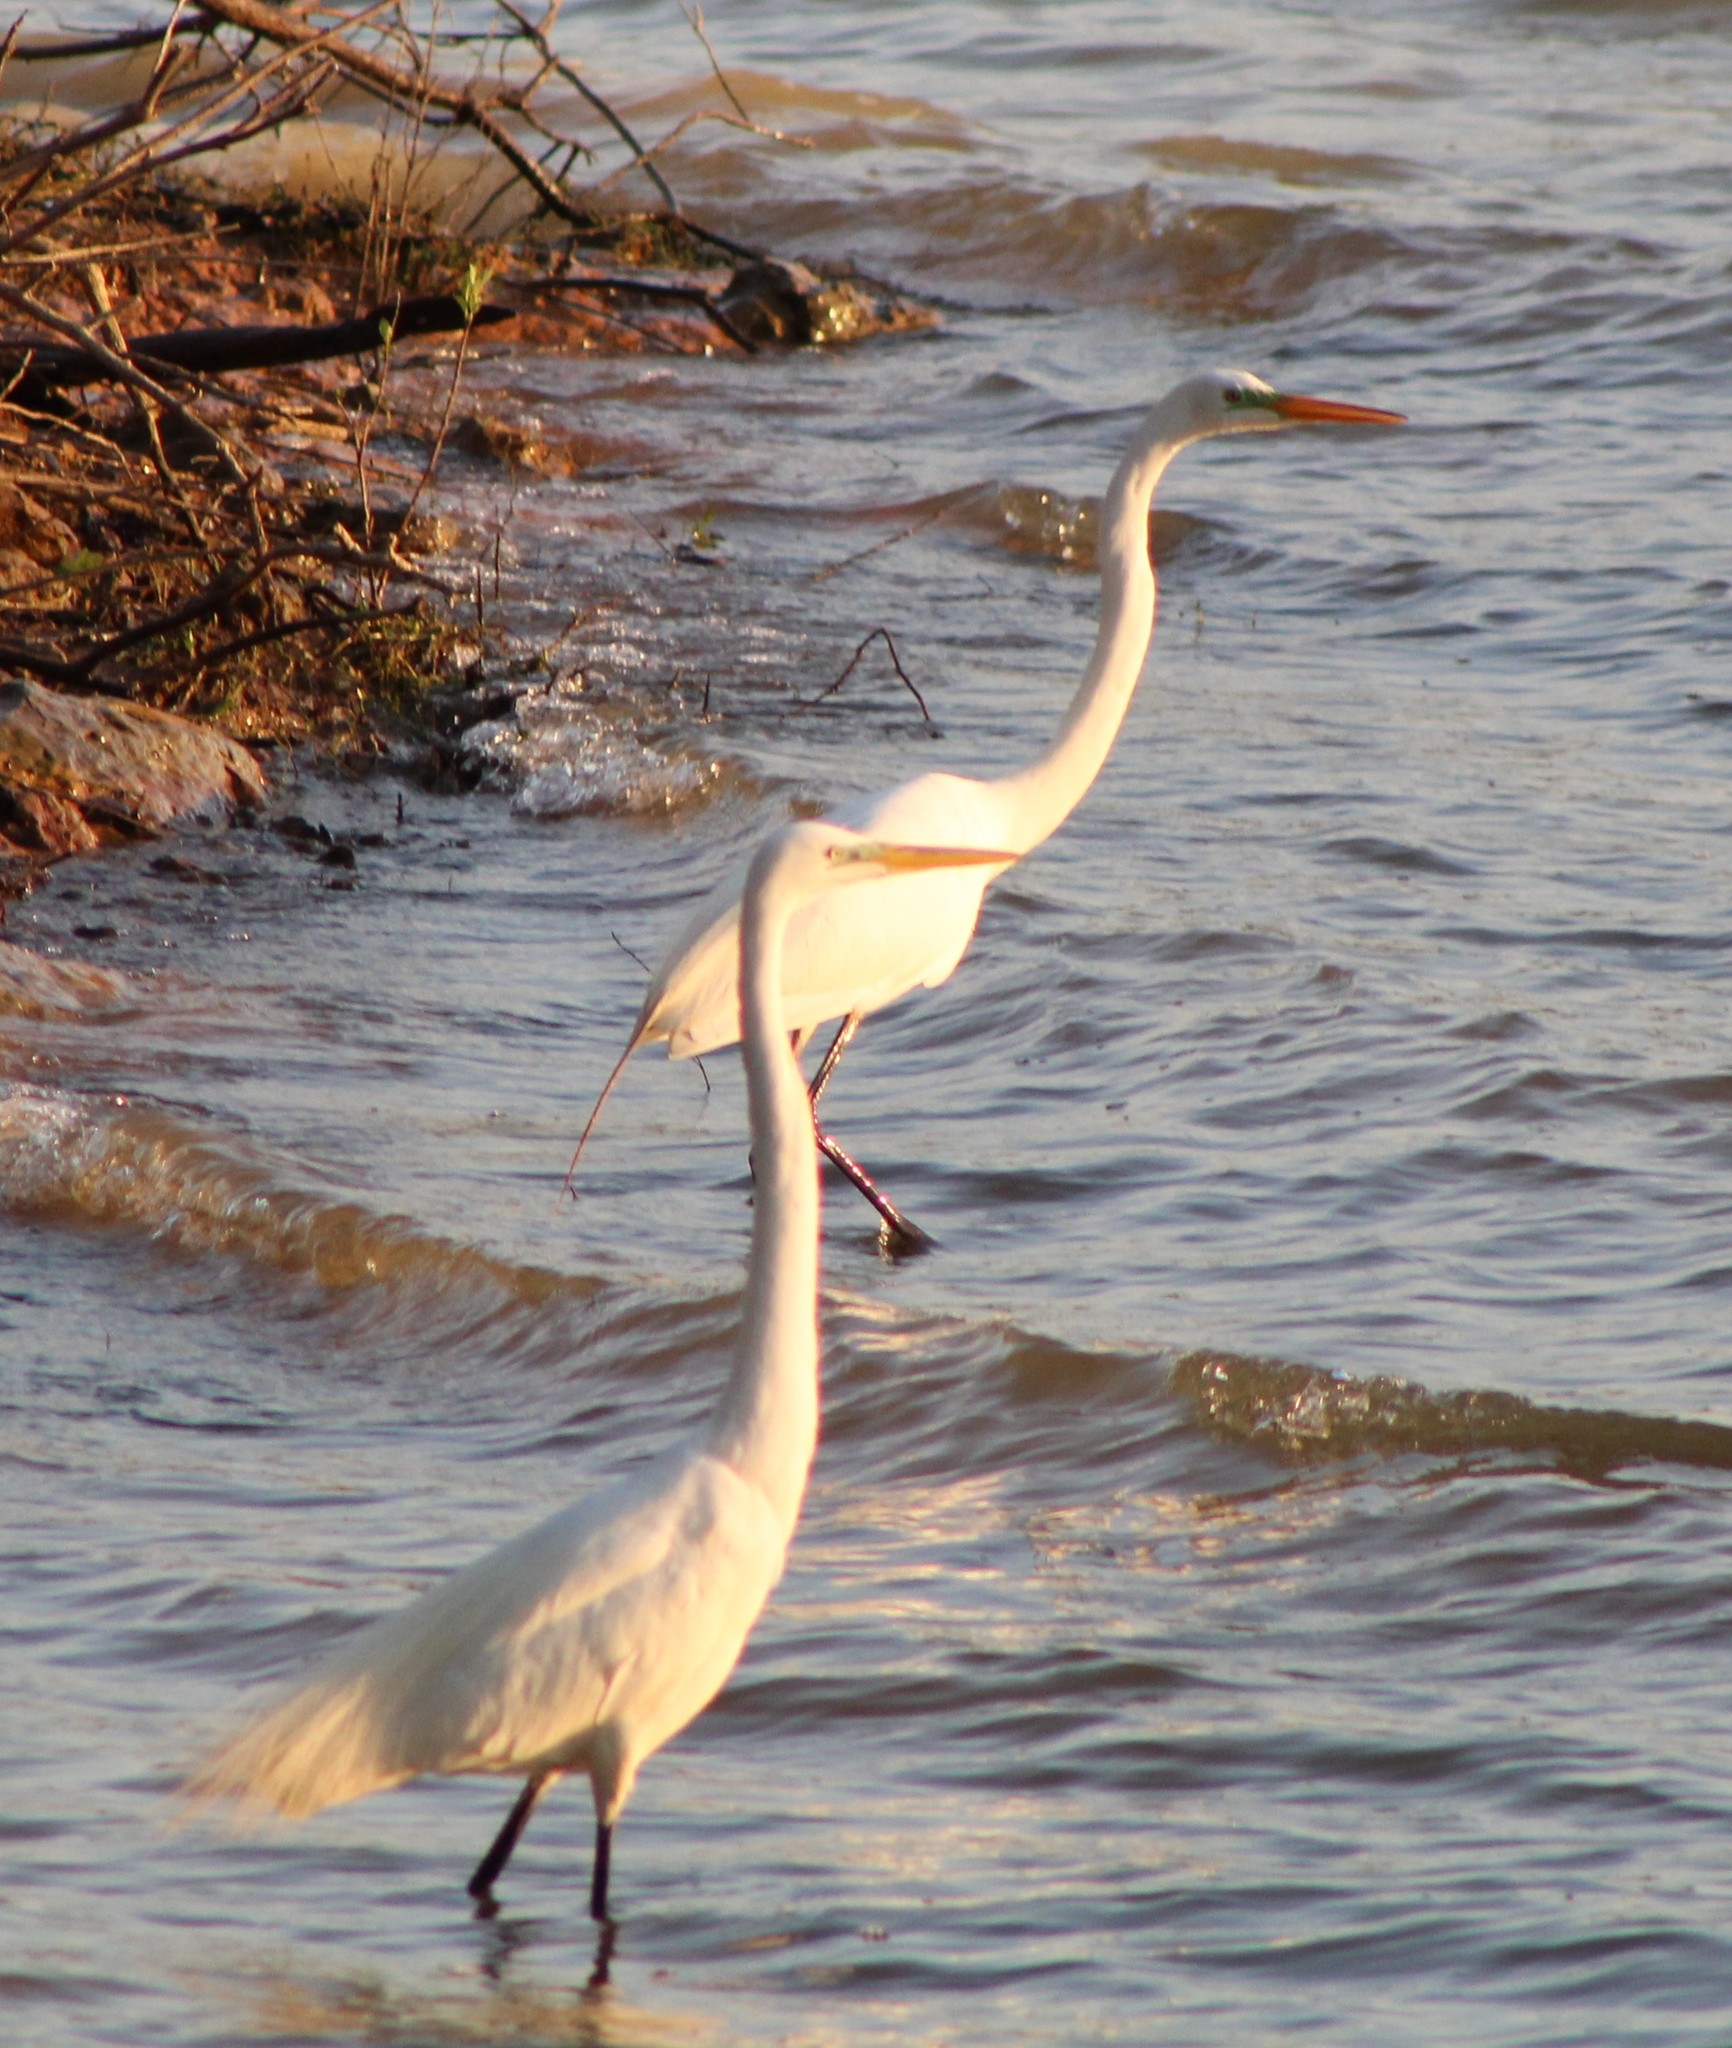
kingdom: Animalia
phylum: Chordata
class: Aves
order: Pelecaniformes
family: Ardeidae
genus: Ardea
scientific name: Ardea alba
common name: Great egret
